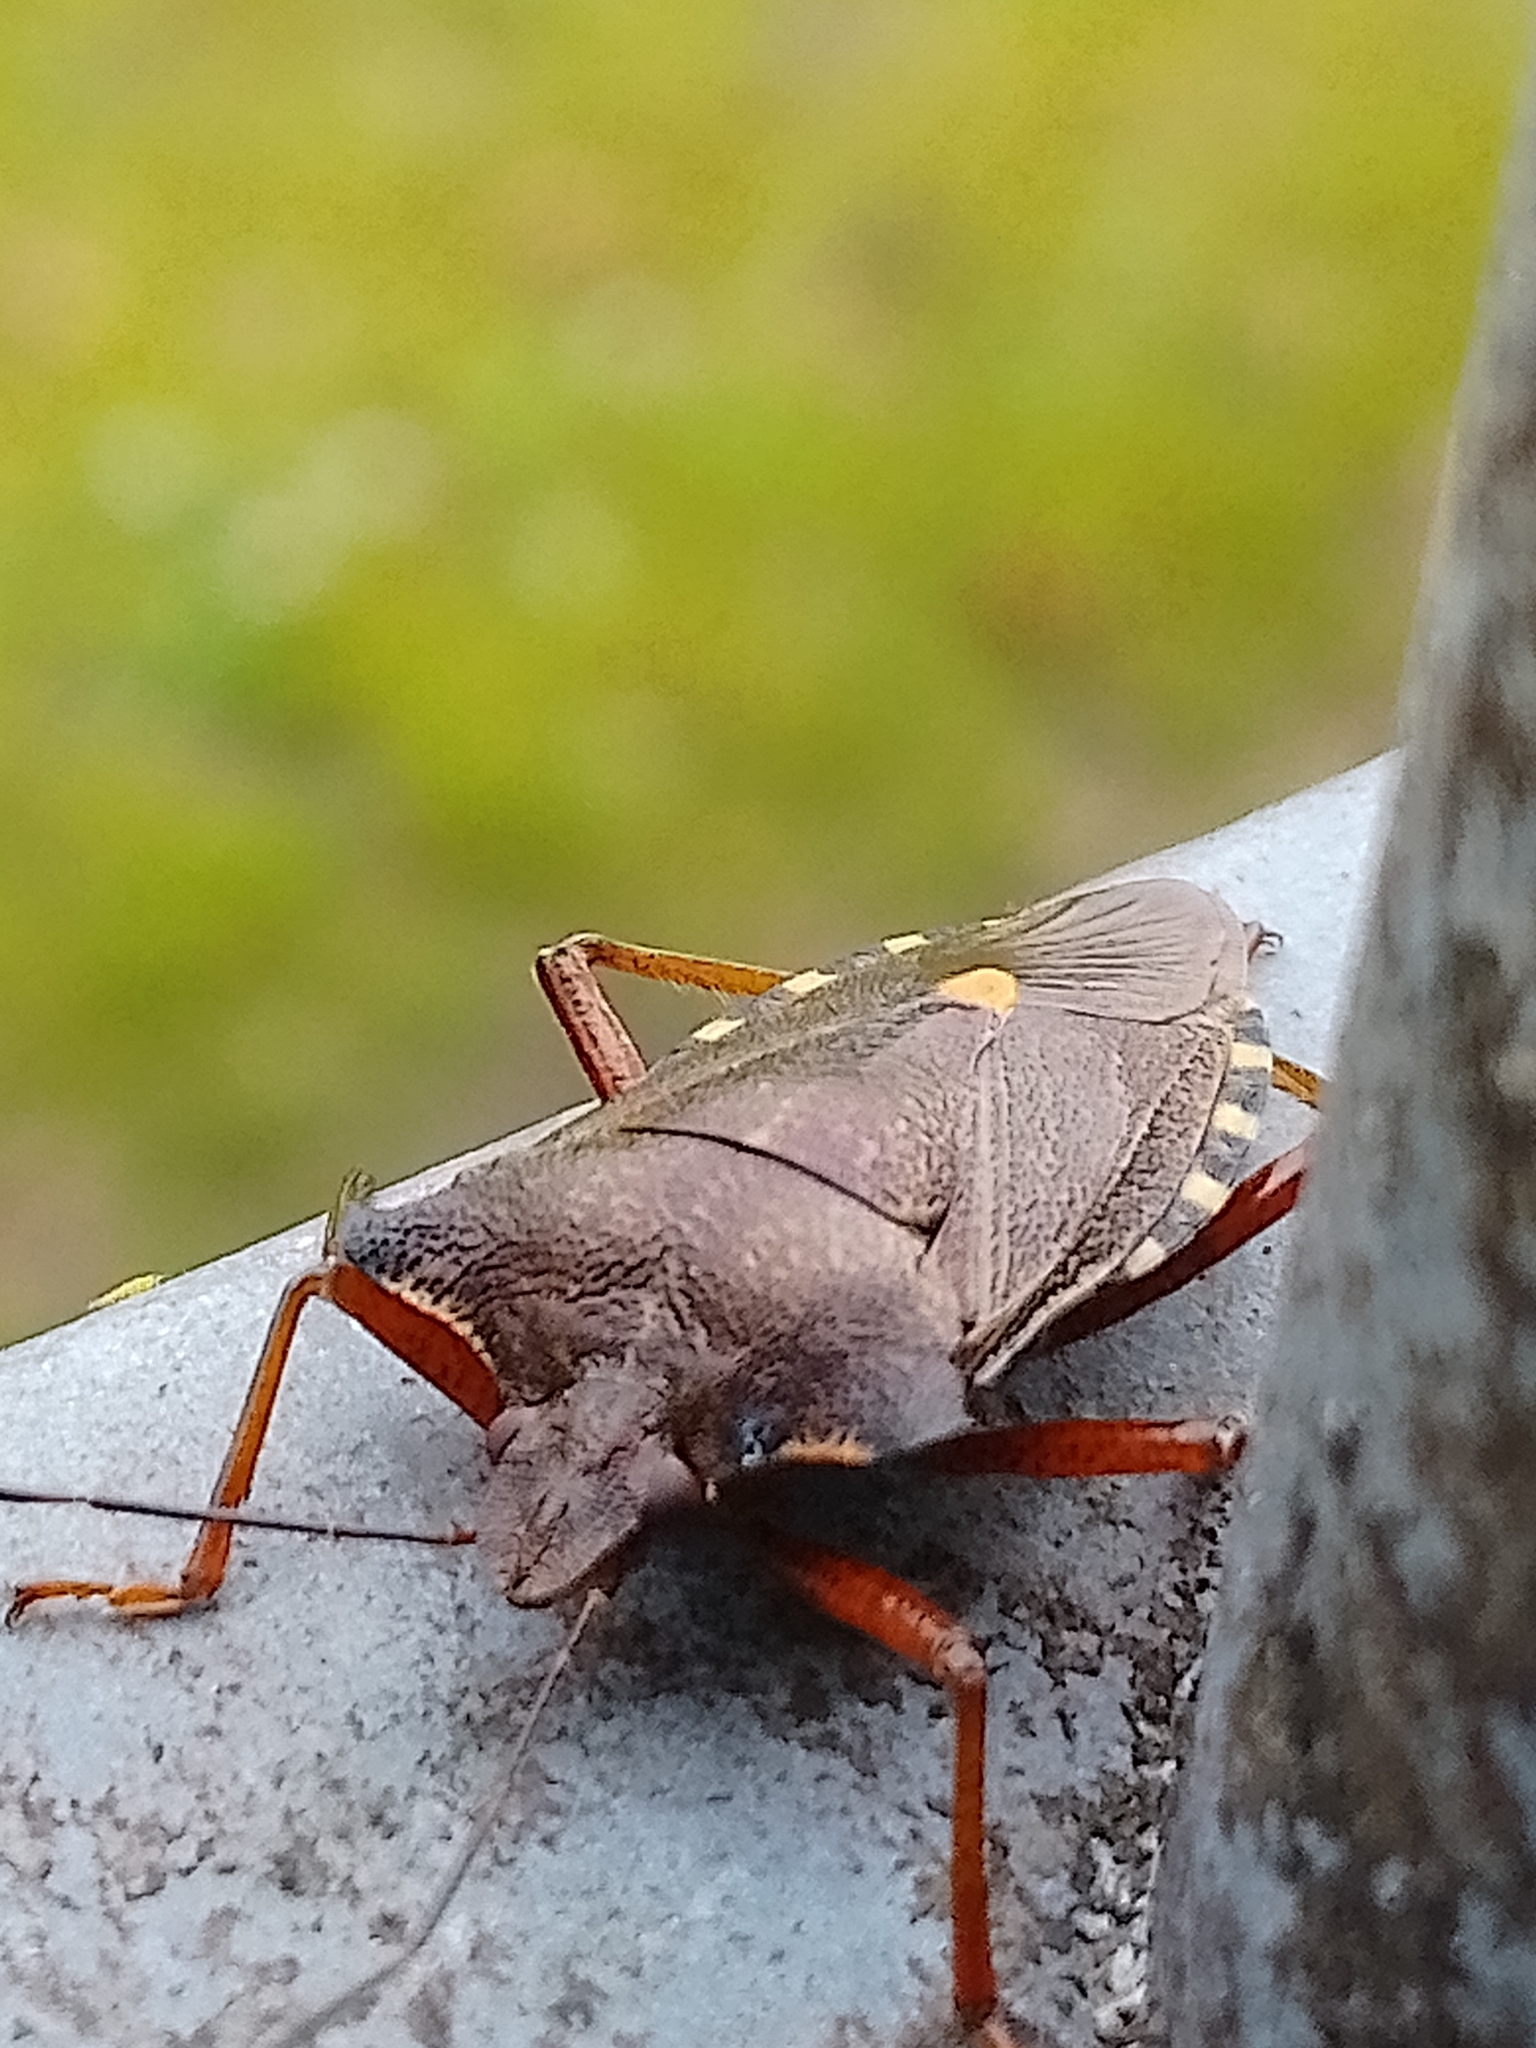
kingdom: Animalia
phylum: Arthropoda
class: Insecta
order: Hemiptera
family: Pentatomidae
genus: Pentatoma
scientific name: Pentatoma rufipes
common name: Forest bug
